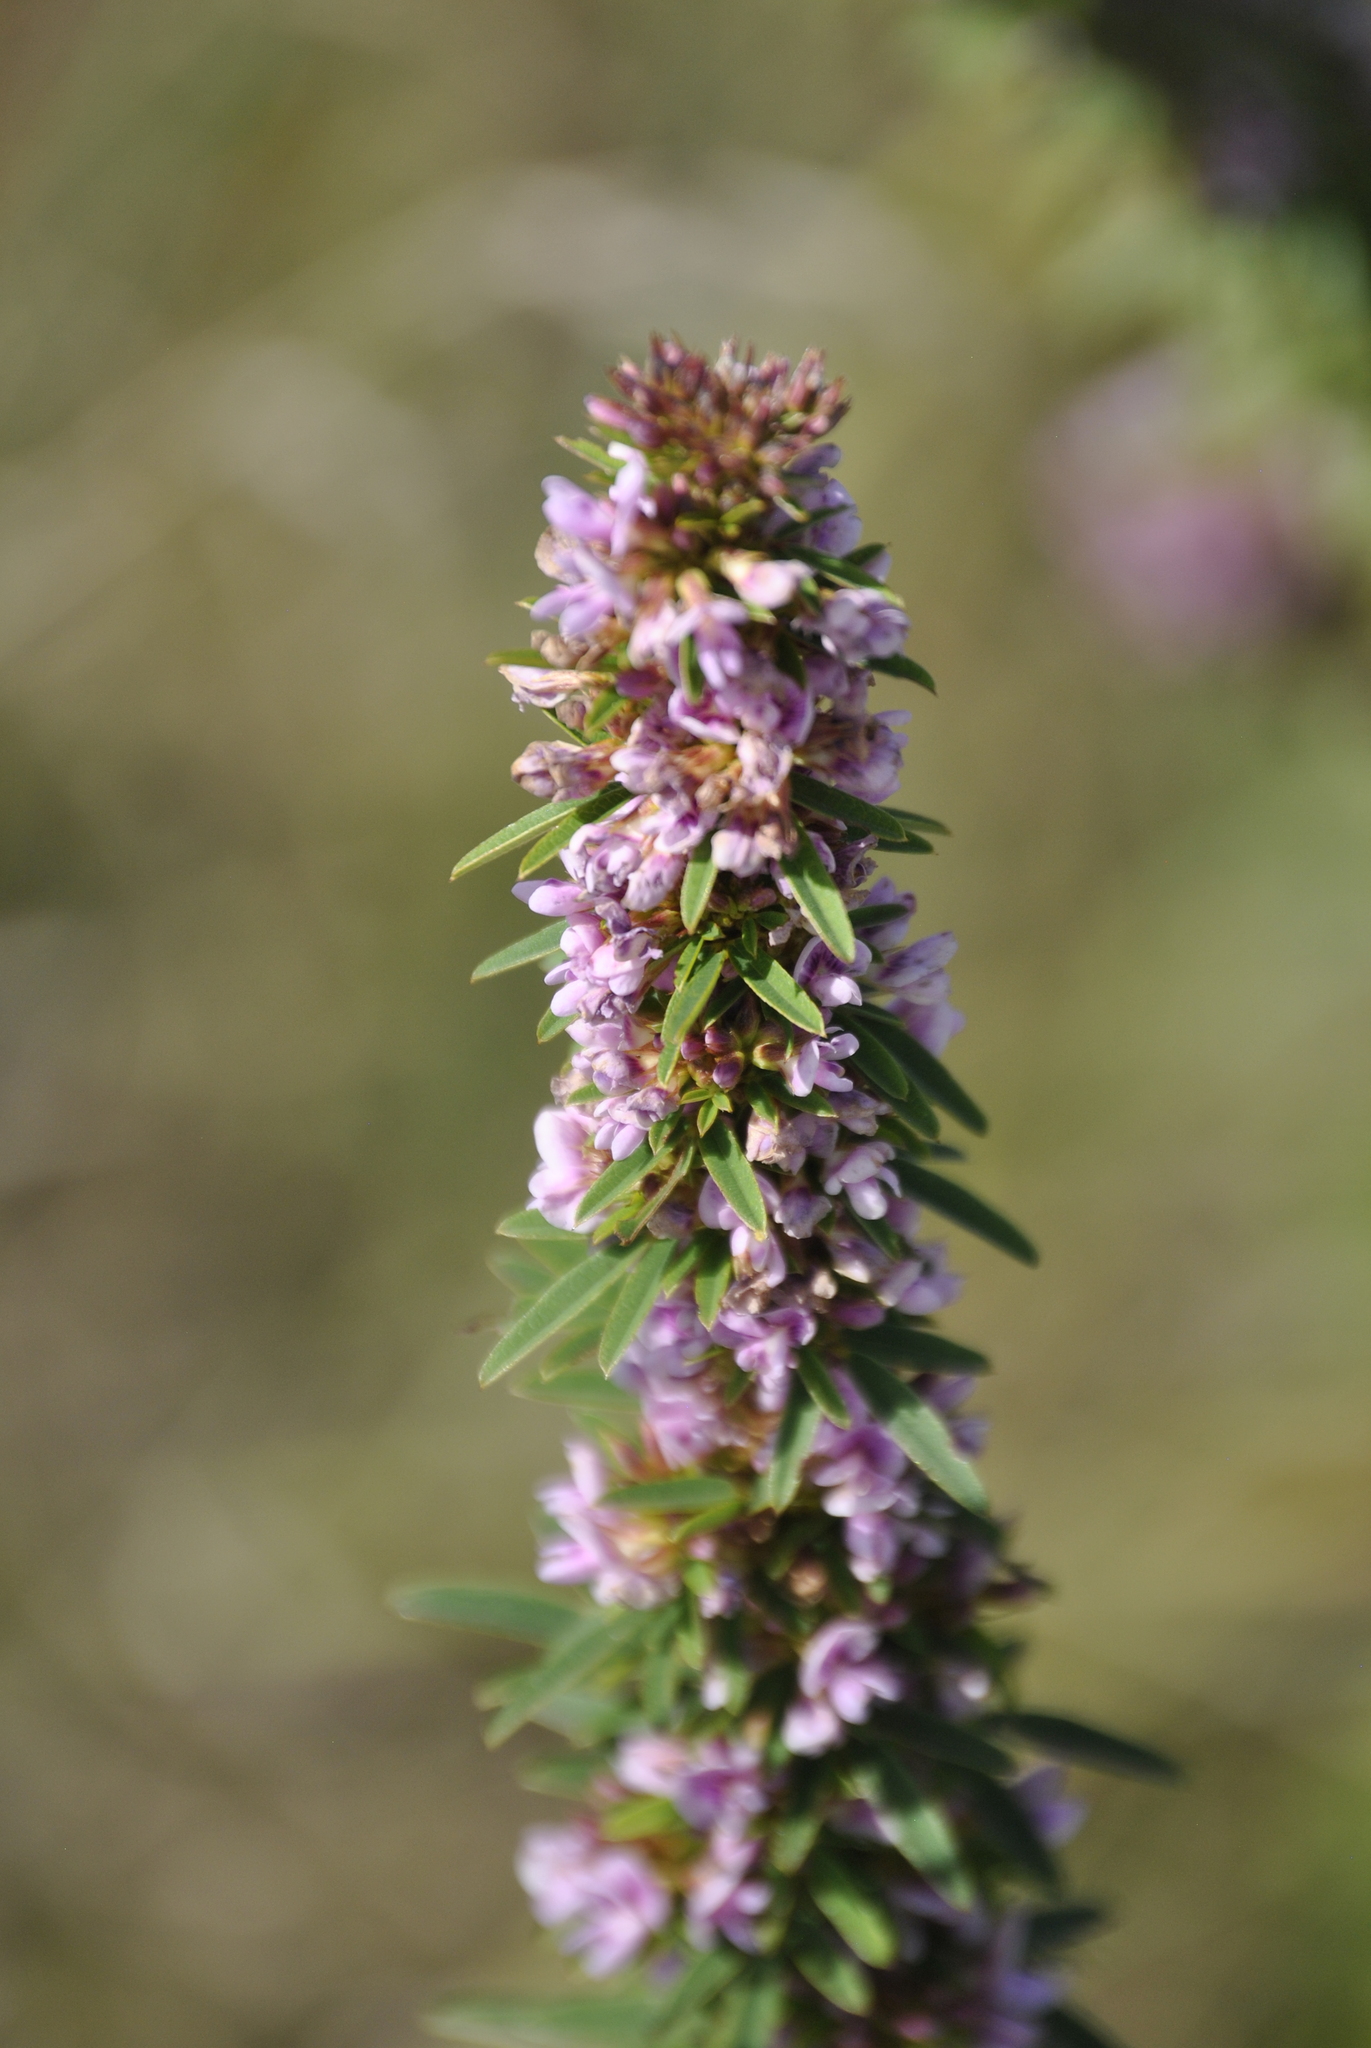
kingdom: Plantae
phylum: Tracheophyta
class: Magnoliopsida
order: Fabales
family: Fabaceae
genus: Lespedeza
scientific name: Lespedeza virginica
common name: Slender bush-clover
